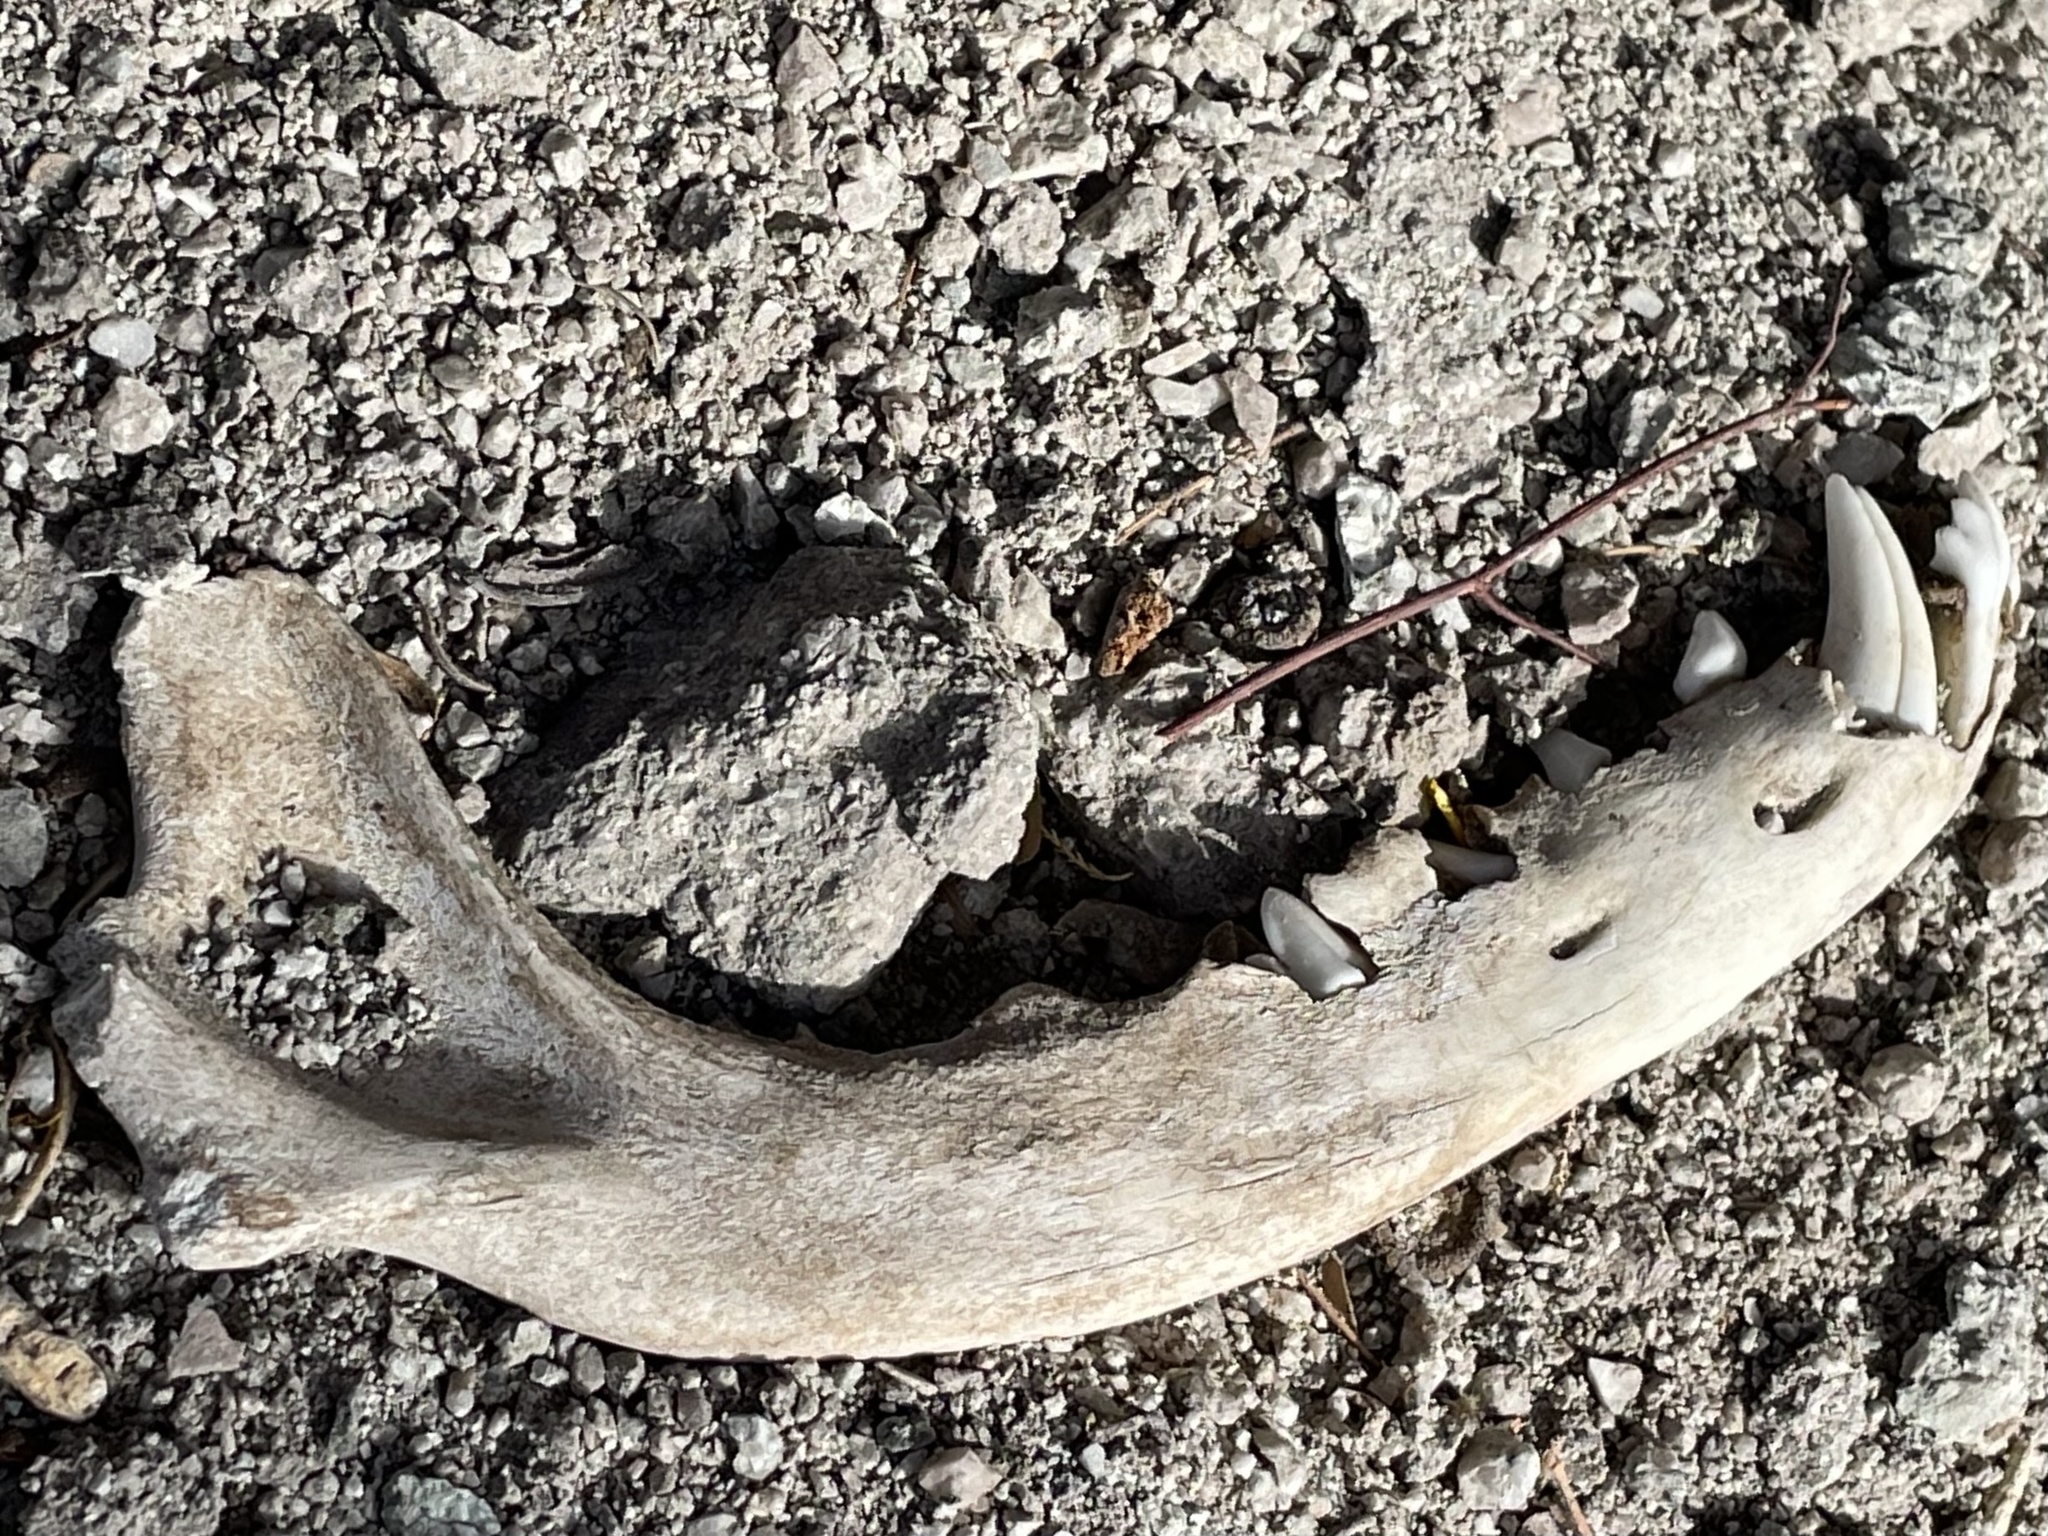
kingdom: Animalia
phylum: Chordata
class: Mammalia
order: Carnivora
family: Canidae
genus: Canis
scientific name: Canis latrans
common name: Coyote
